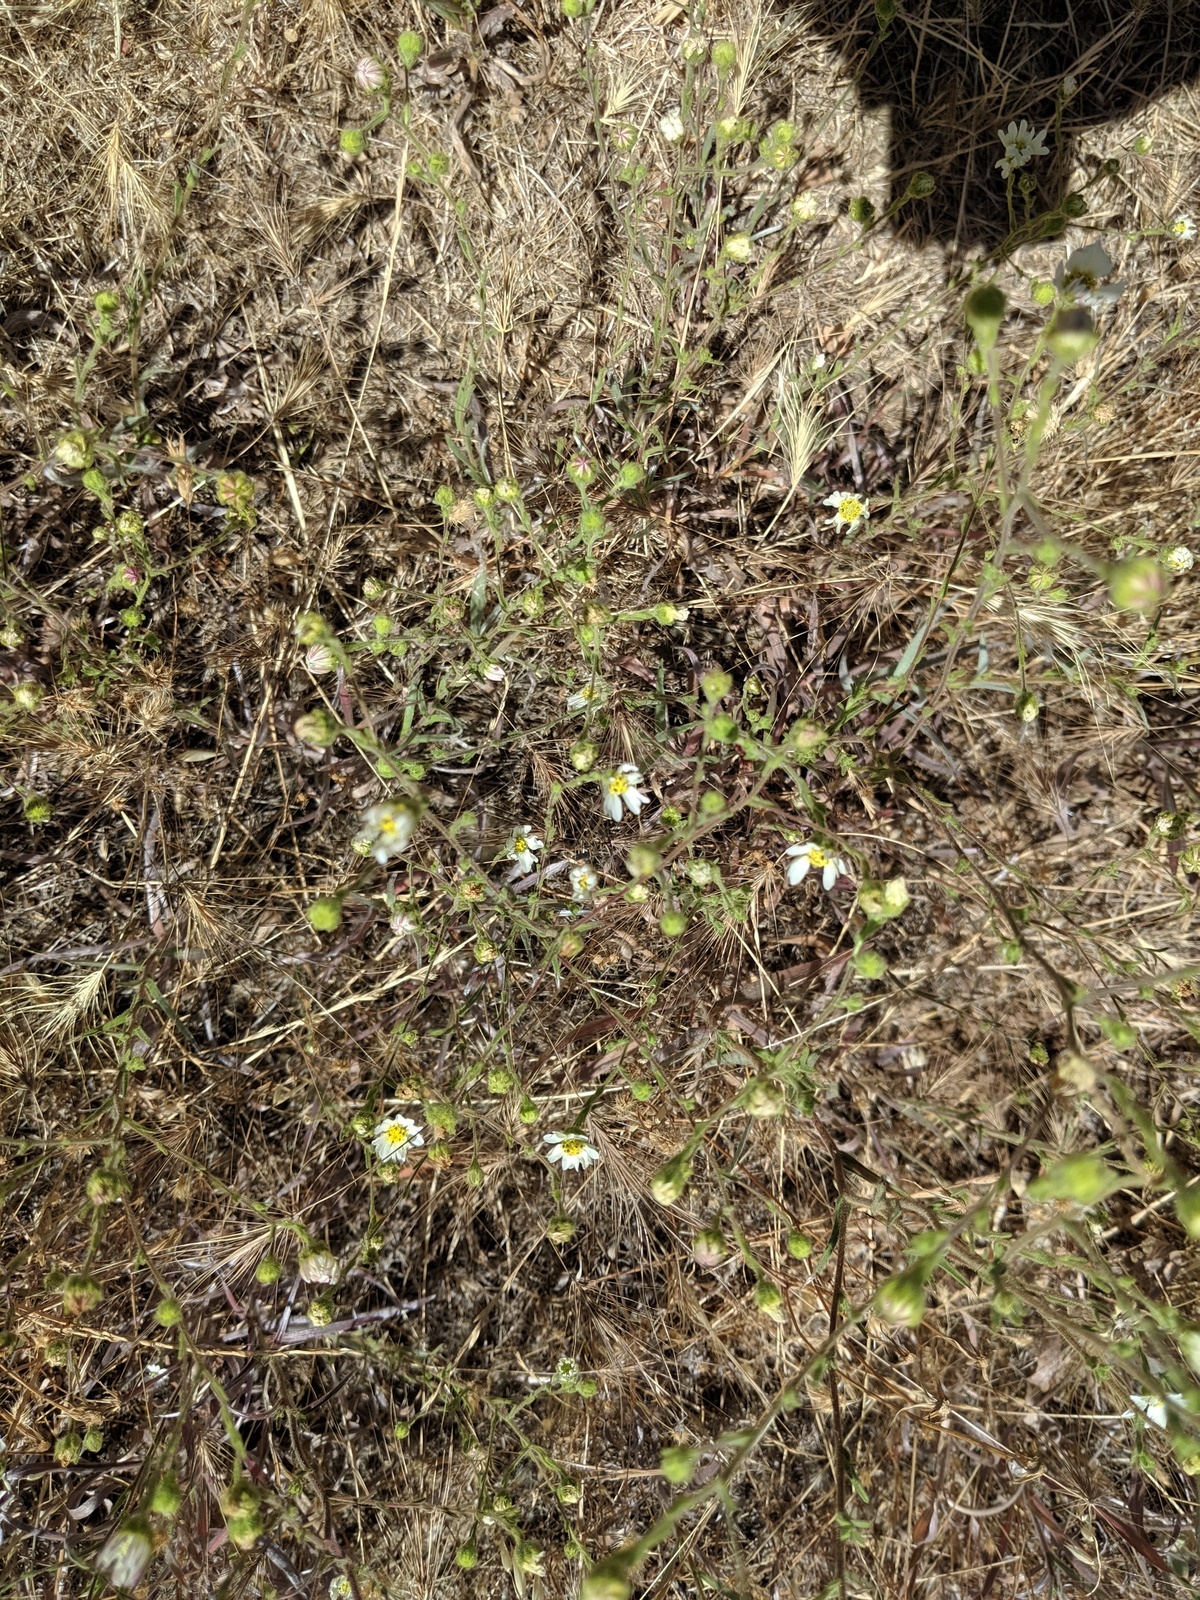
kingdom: Plantae
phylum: Tracheophyta
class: Magnoliopsida
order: Asterales
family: Asteraceae
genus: Hemizonia
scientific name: Hemizonia congesta
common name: Hayfield tarweed
